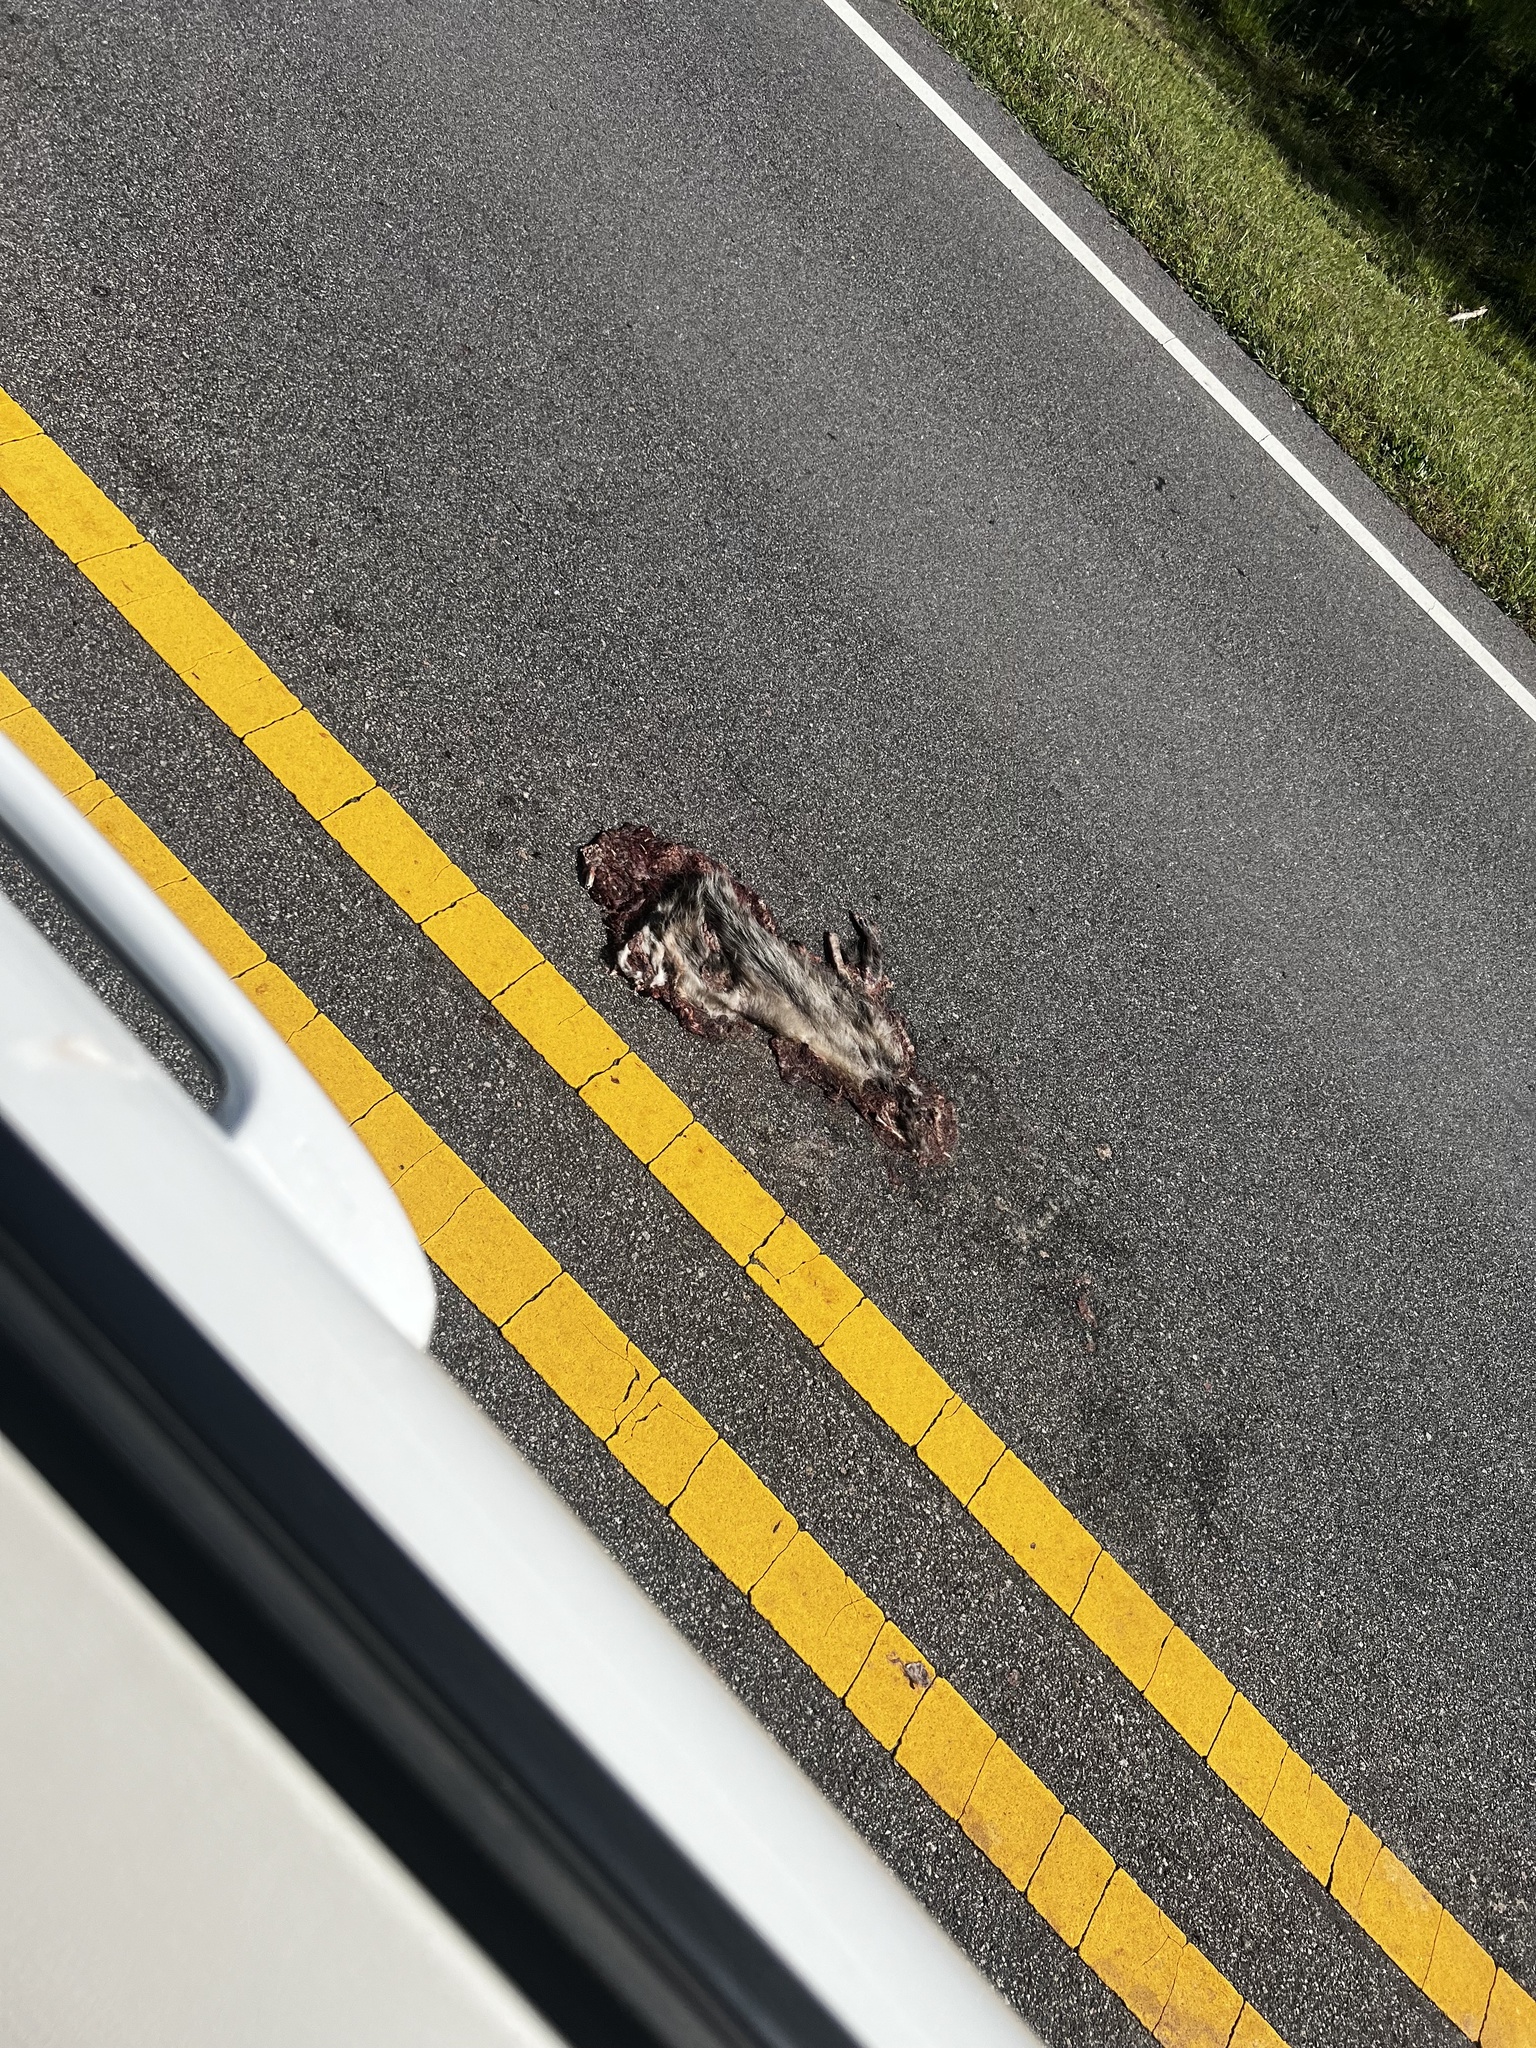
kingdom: Animalia
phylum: Chordata
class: Mammalia
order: Didelphimorphia
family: Didelphidae
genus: Didelphis
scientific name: Didelphis virginiana
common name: Virginia opossum
